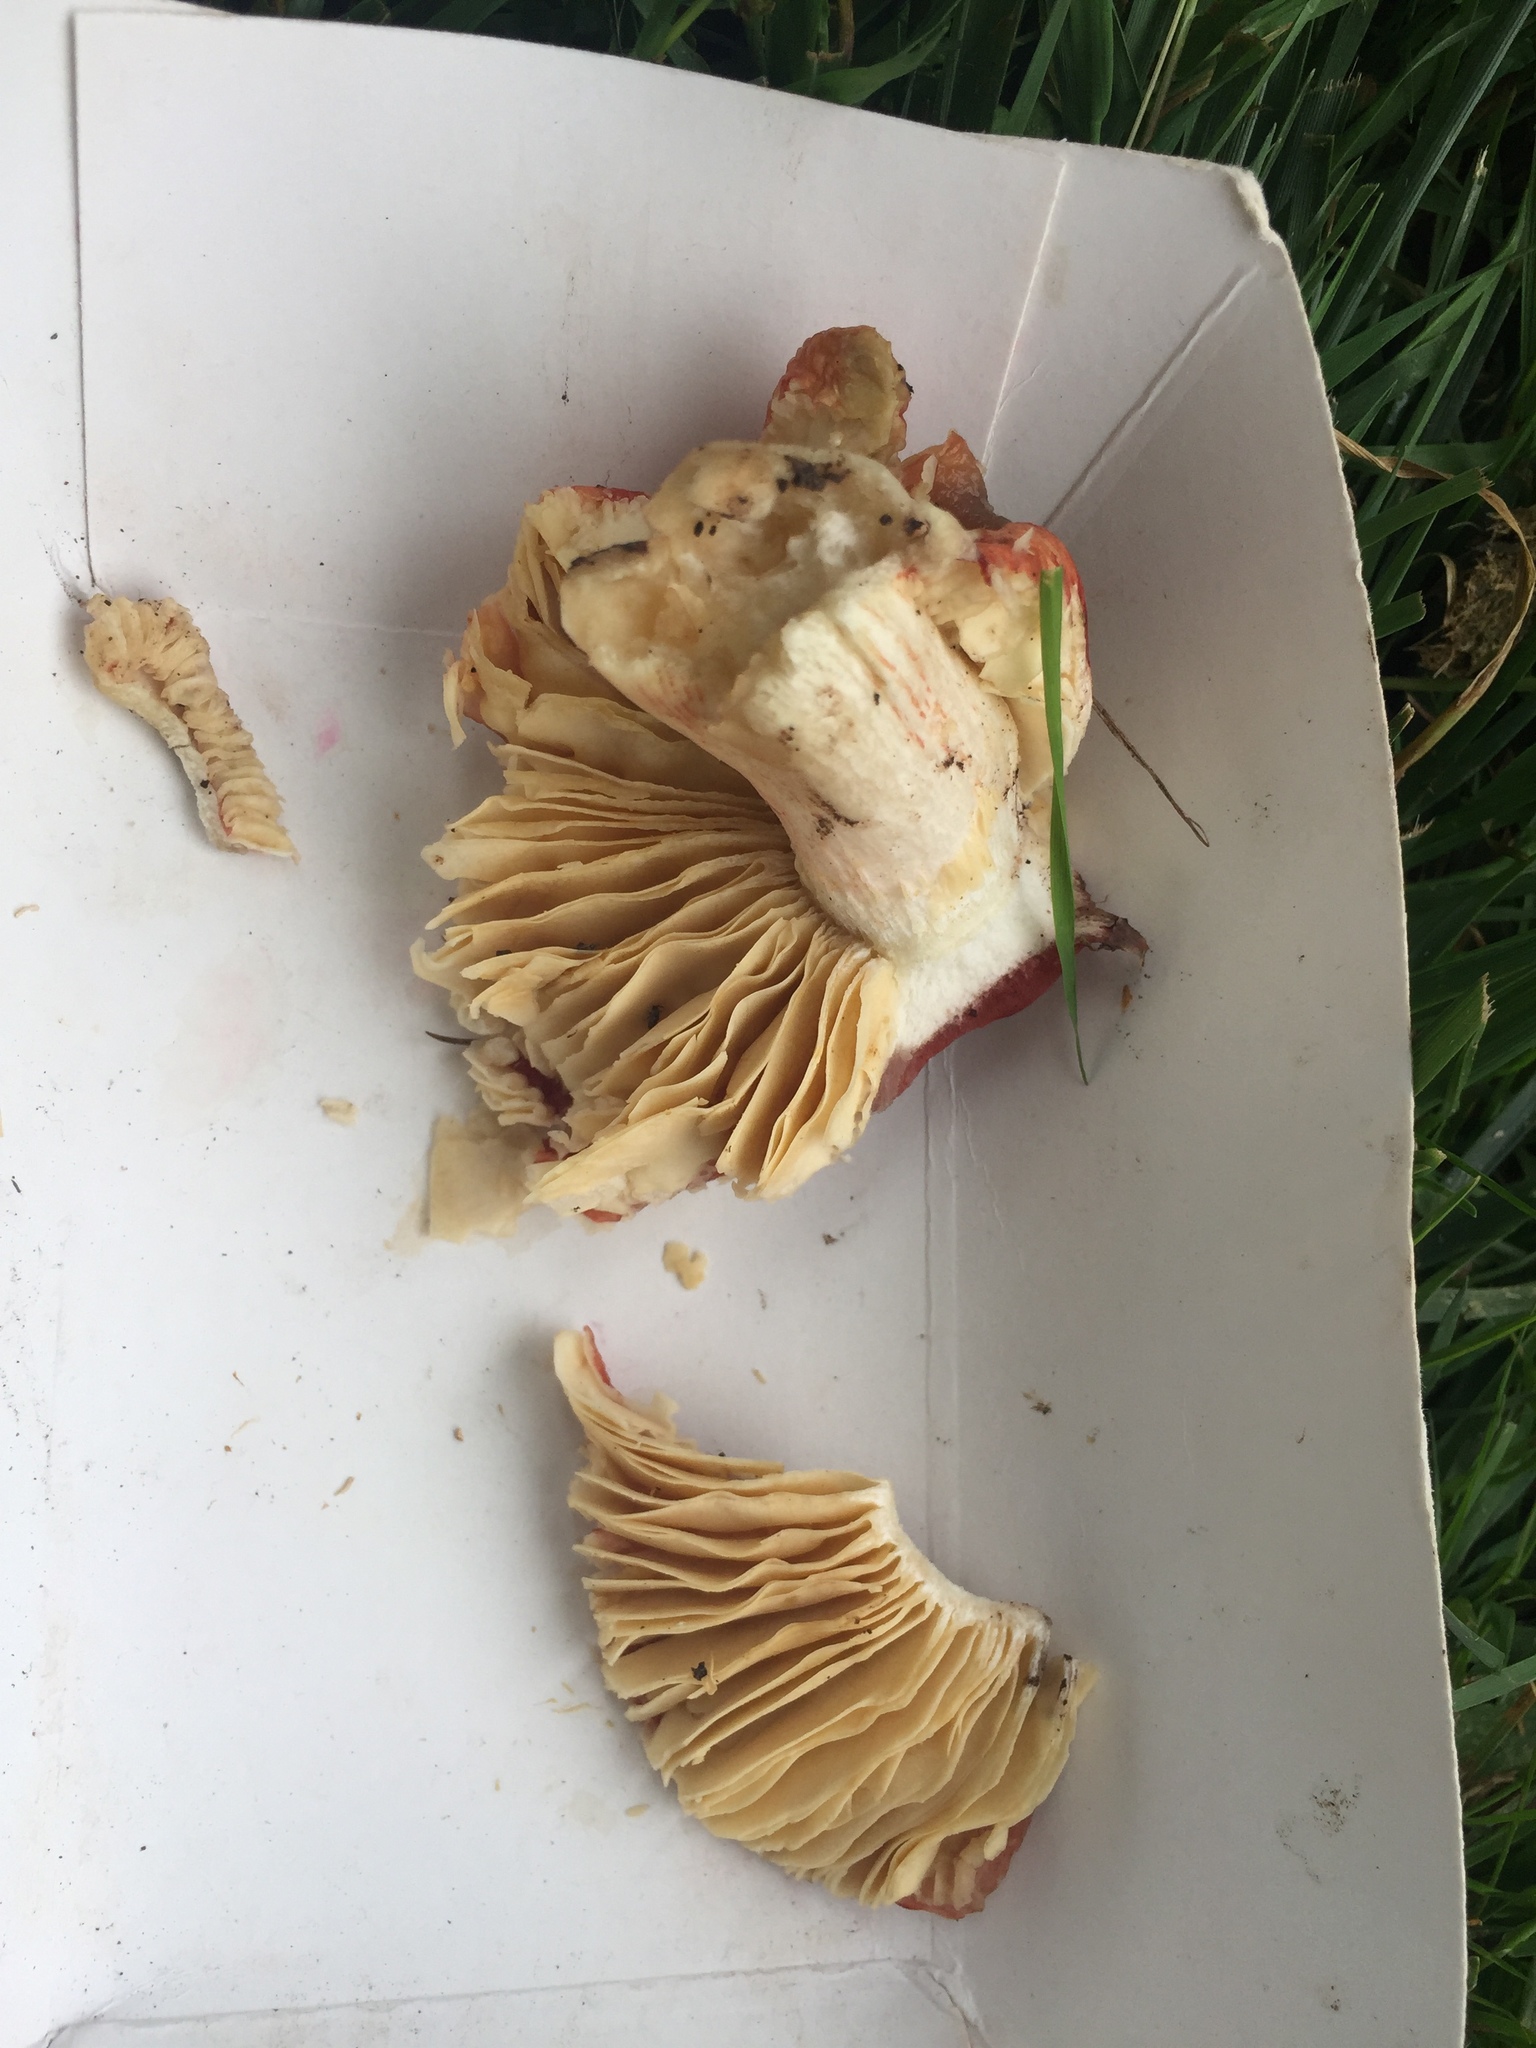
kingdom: Fungi
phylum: Basidiomycota
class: Agaricomycetes
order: Russulales
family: Russulaceae
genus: Russula
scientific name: Russula tenuiceps
